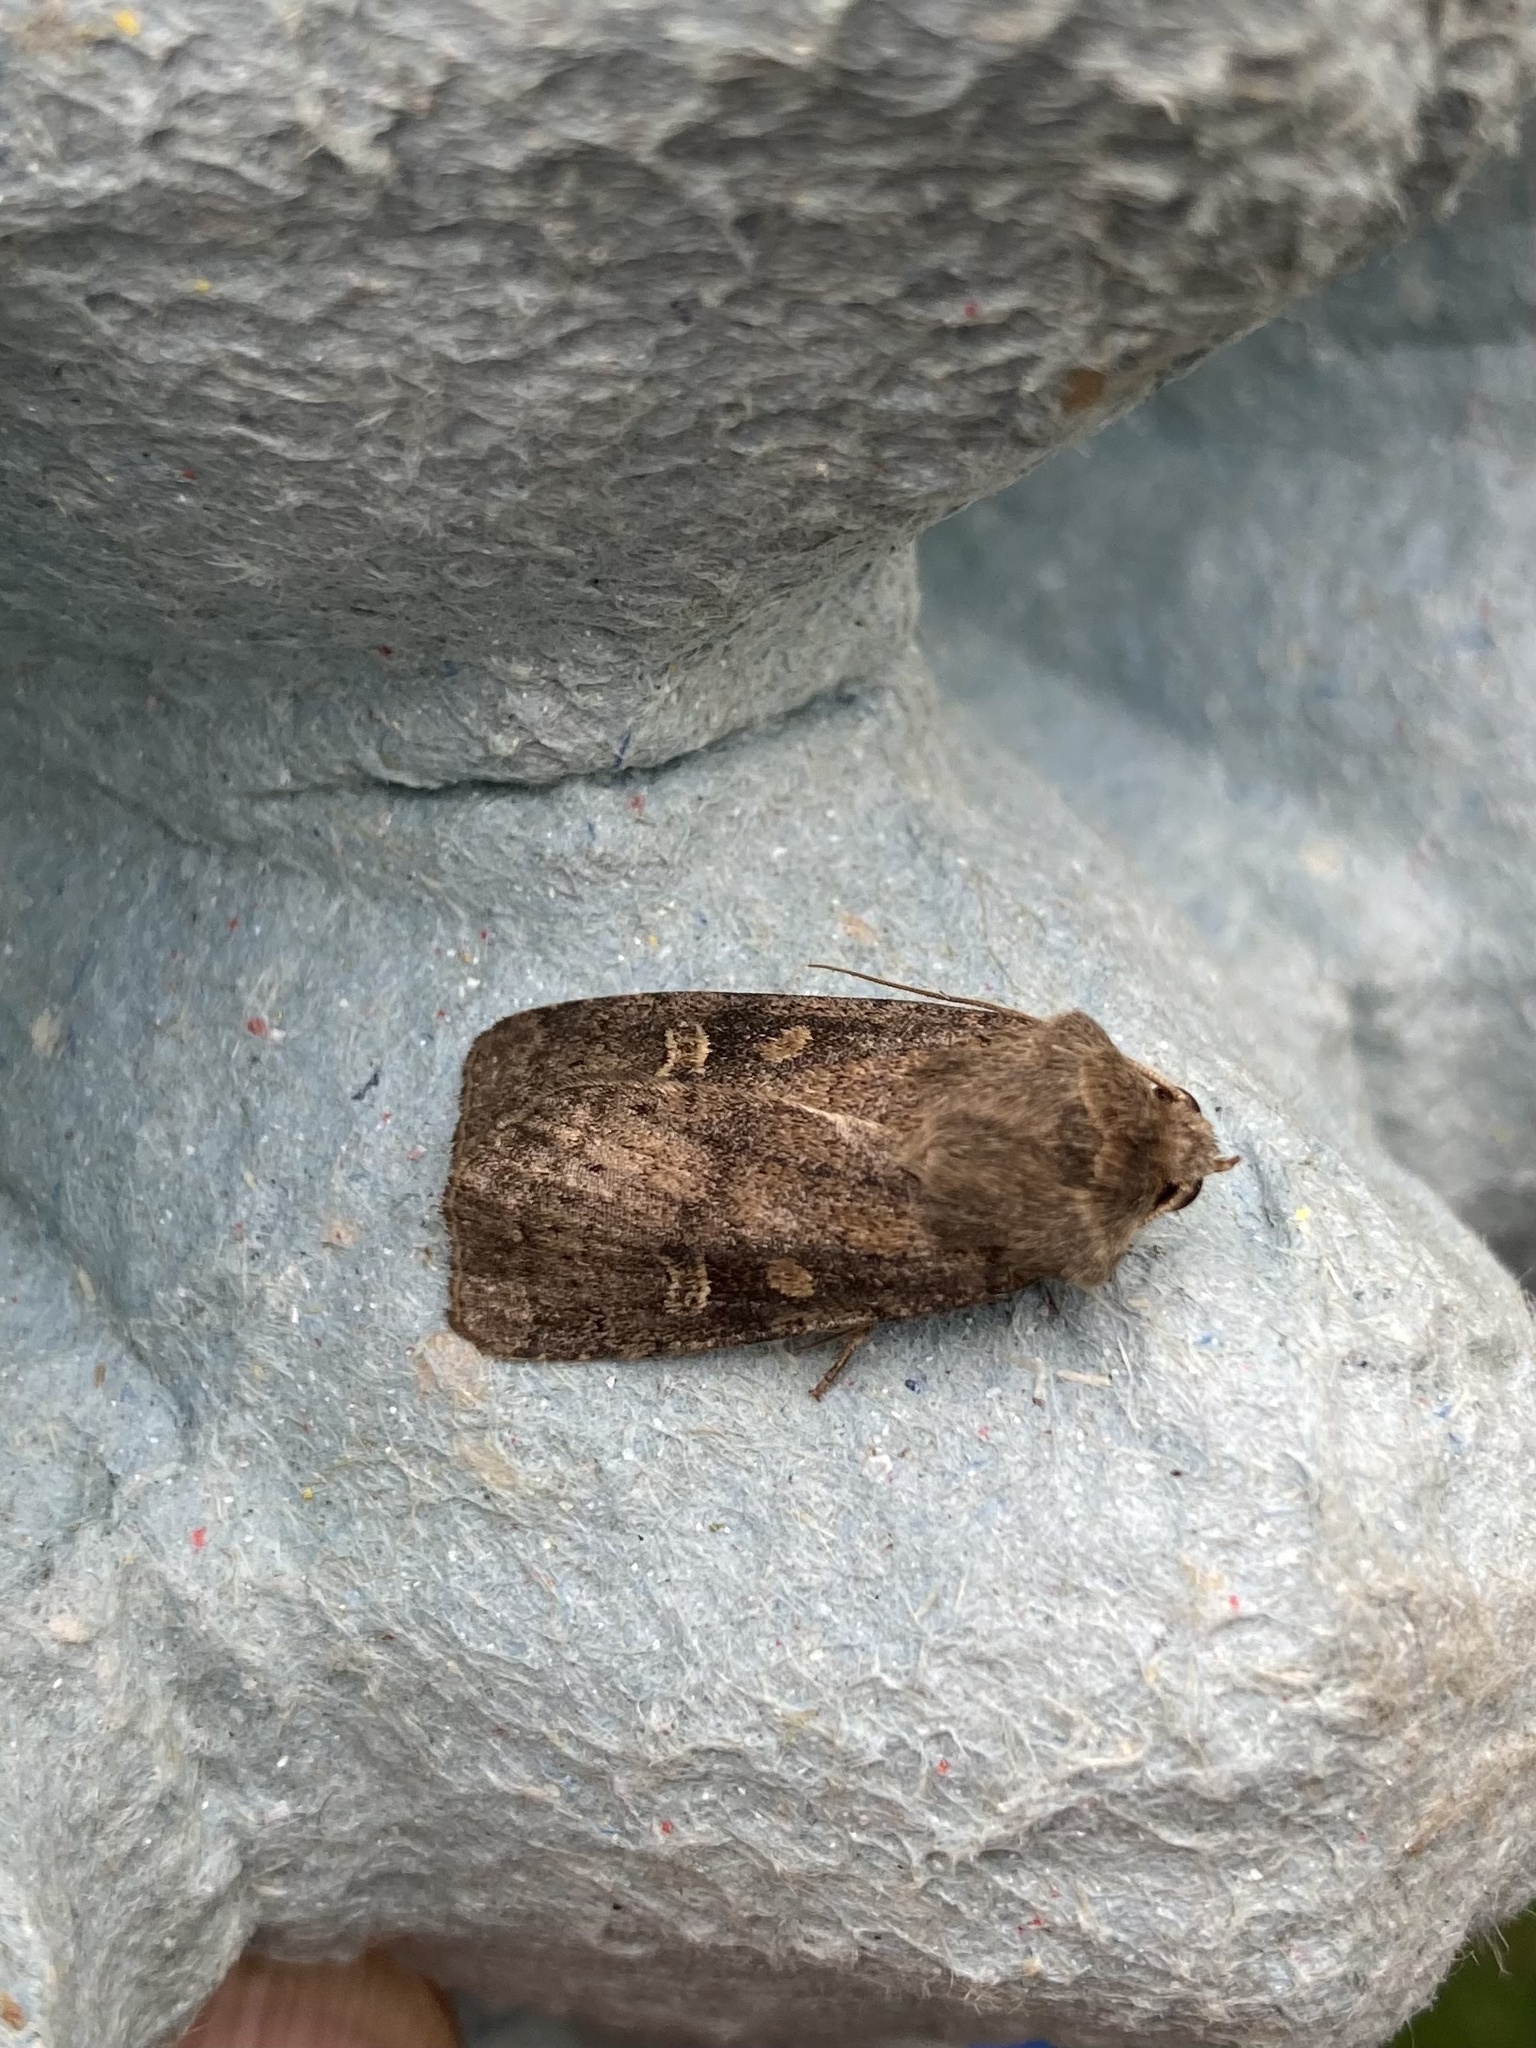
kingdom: Animalia
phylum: Arthropoda
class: Insecta
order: Lepidoptera
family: Noctuidae
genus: Xestia
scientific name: Xestia xanthographa
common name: Square-spot rustic
